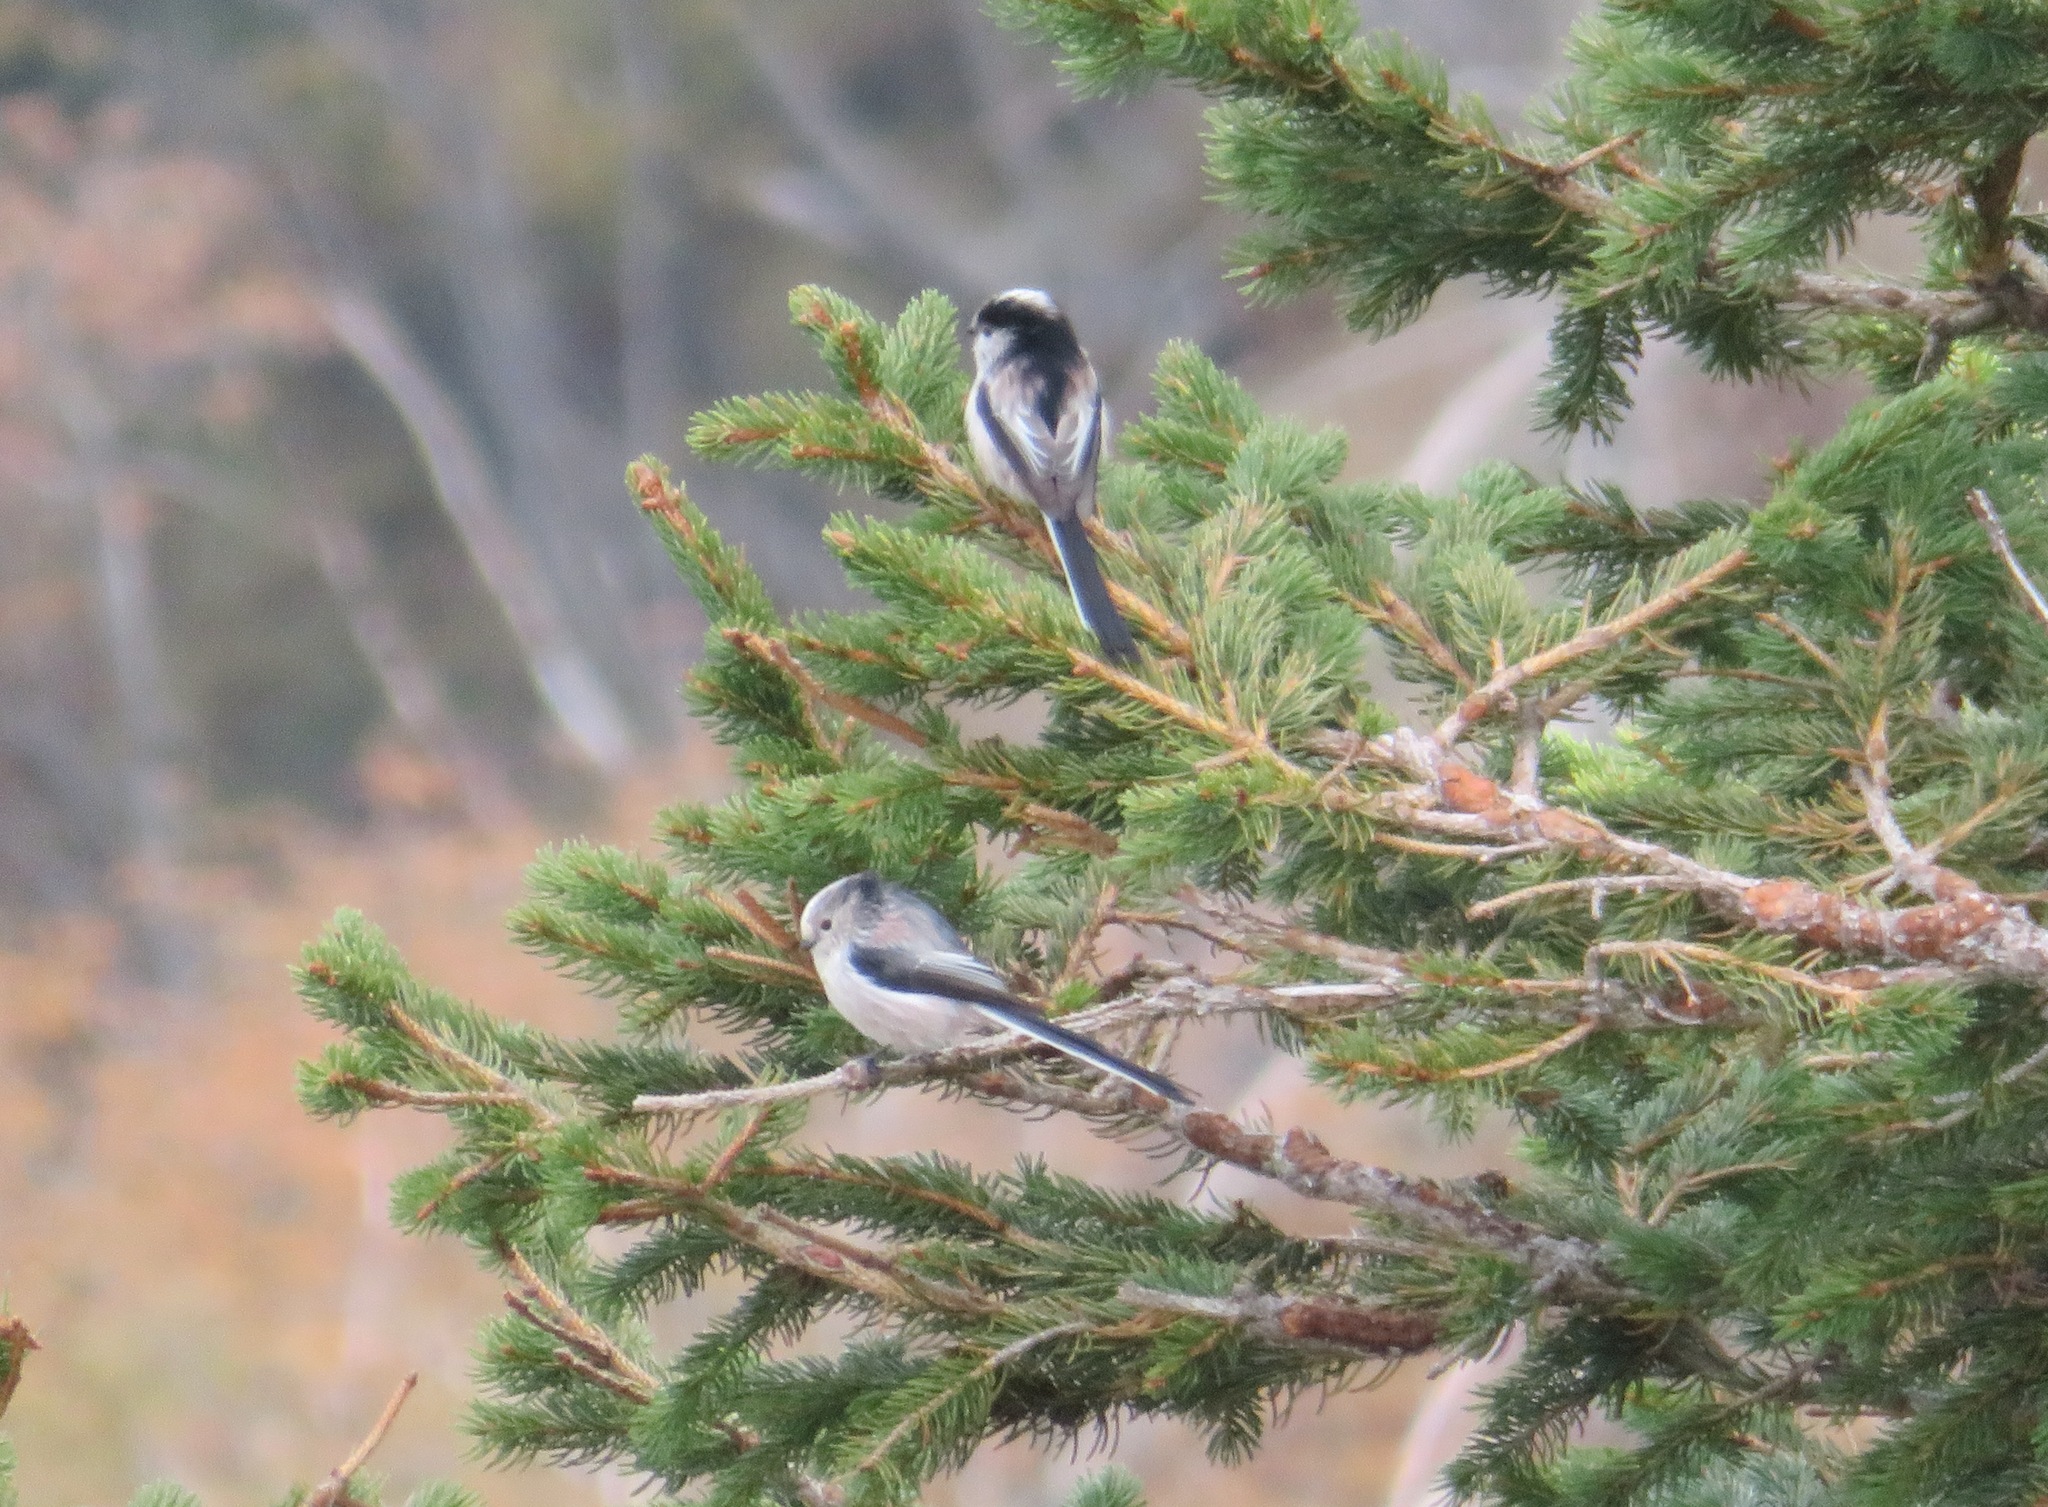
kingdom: Animalia
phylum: Chordata
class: Aves
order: Passeriformes
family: Aegithalidae
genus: Aegithalos
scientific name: Aegithalos caudatus
